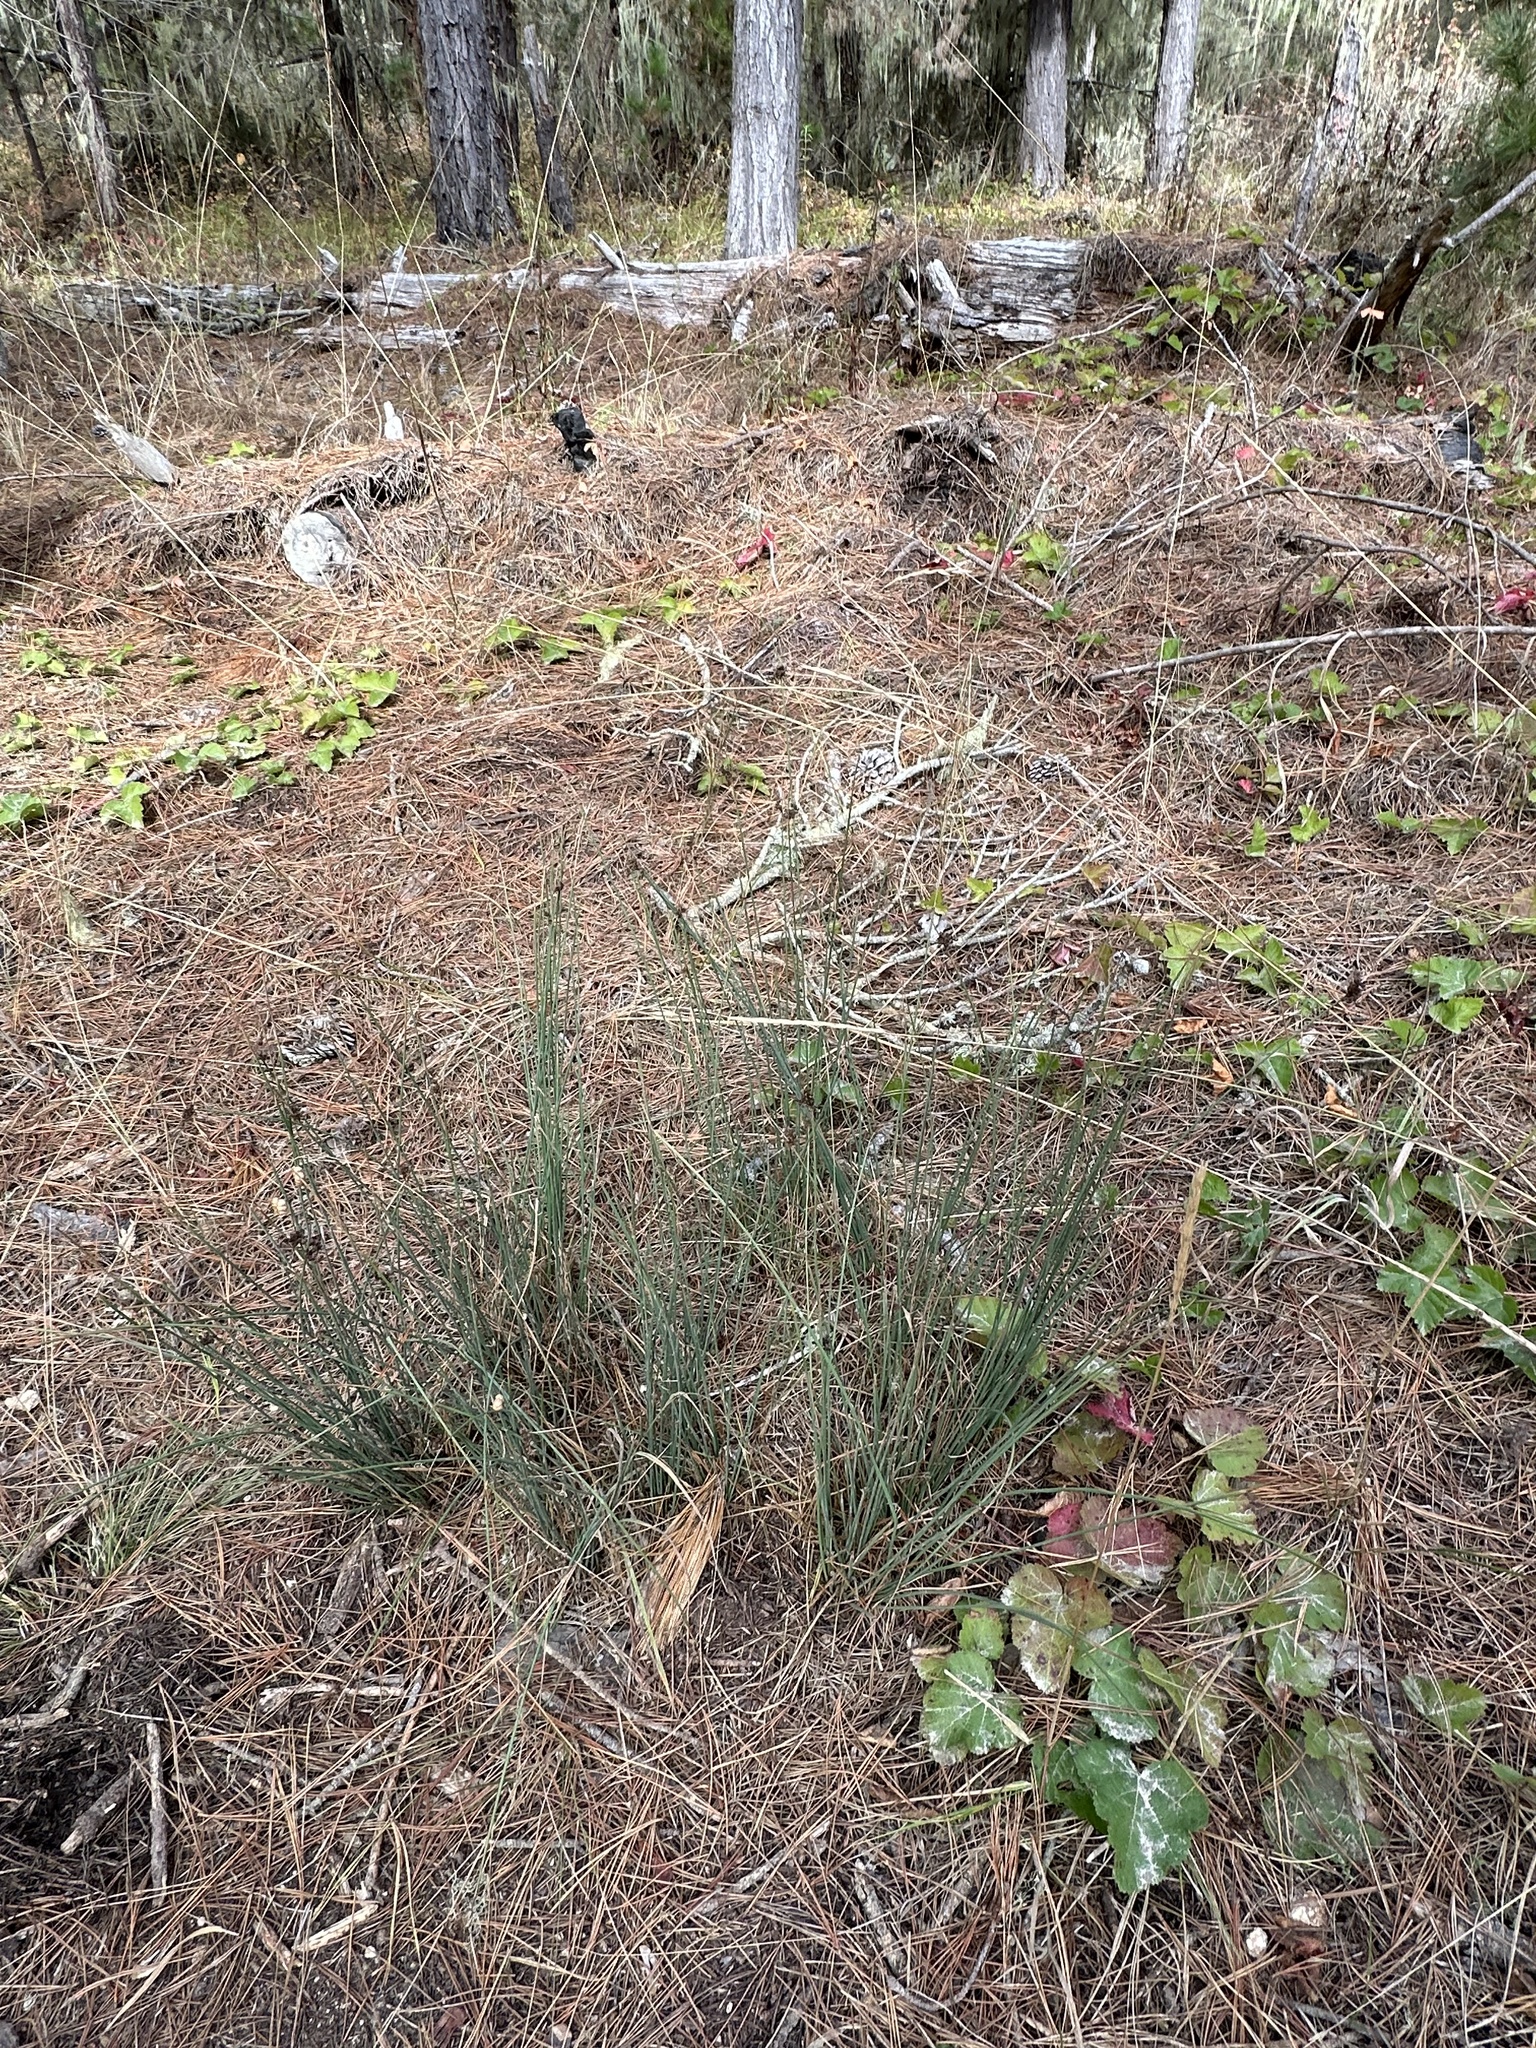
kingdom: Plantae
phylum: Tracheophyta
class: Liliopsida
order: Poales
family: Juncaceae
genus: Juncus
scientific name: Juncus patens
